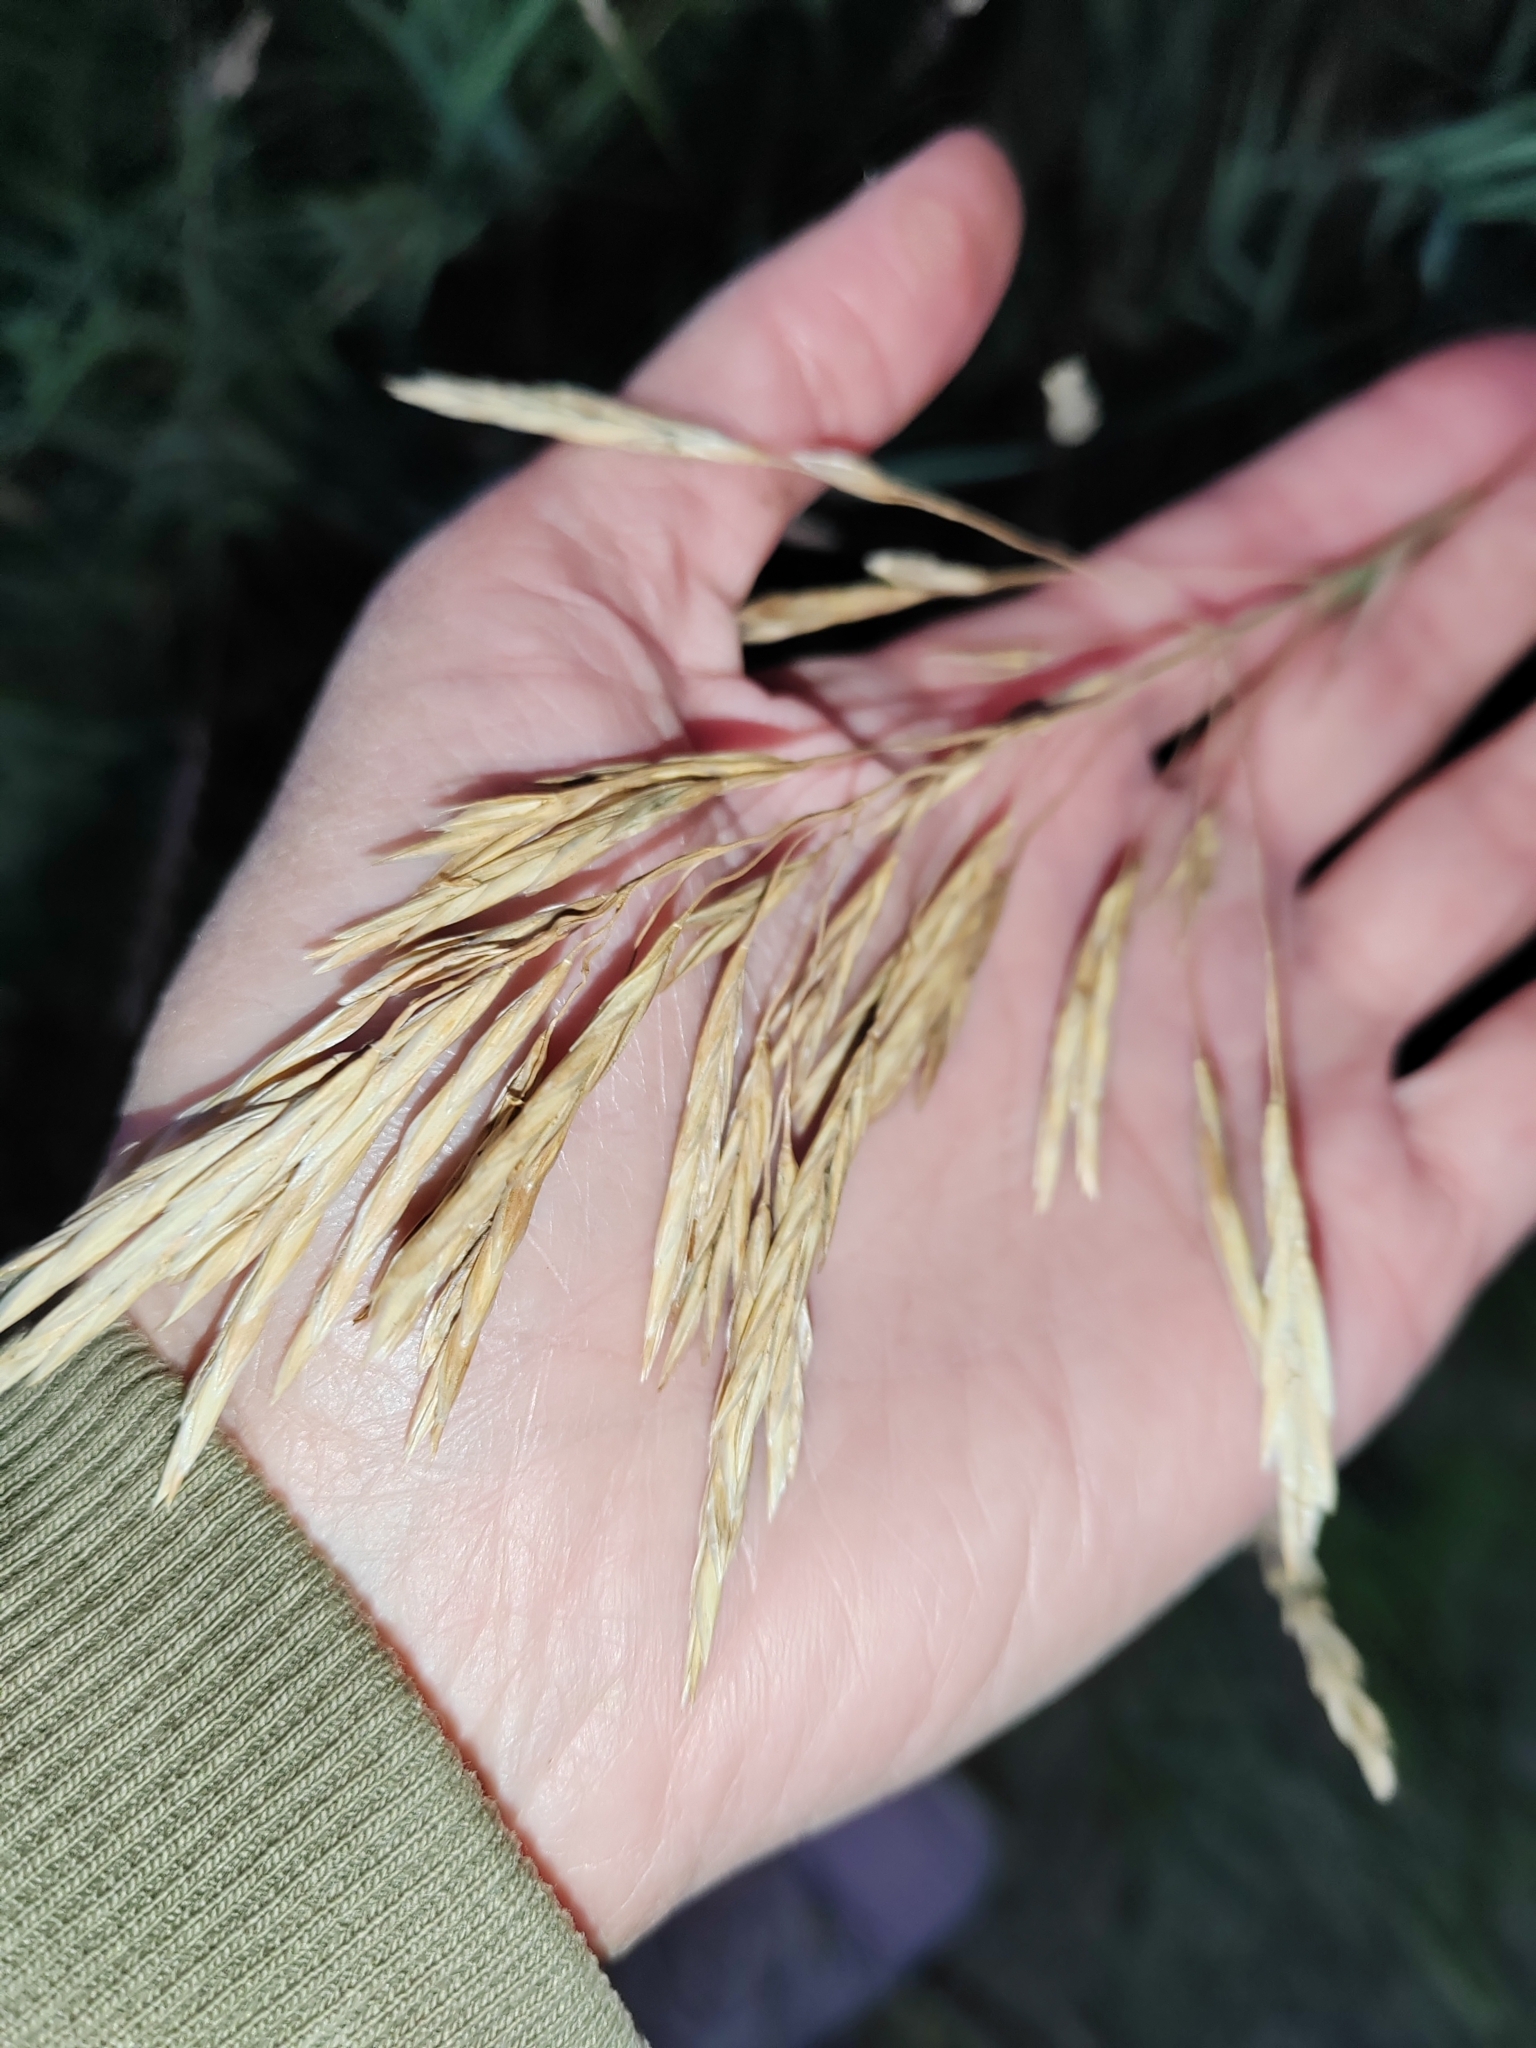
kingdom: Plantae
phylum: Tracheophyta
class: Liliopsida
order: Poales
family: Poaceae
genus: Bromus
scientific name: Bromus inermis
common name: Smooth brome
